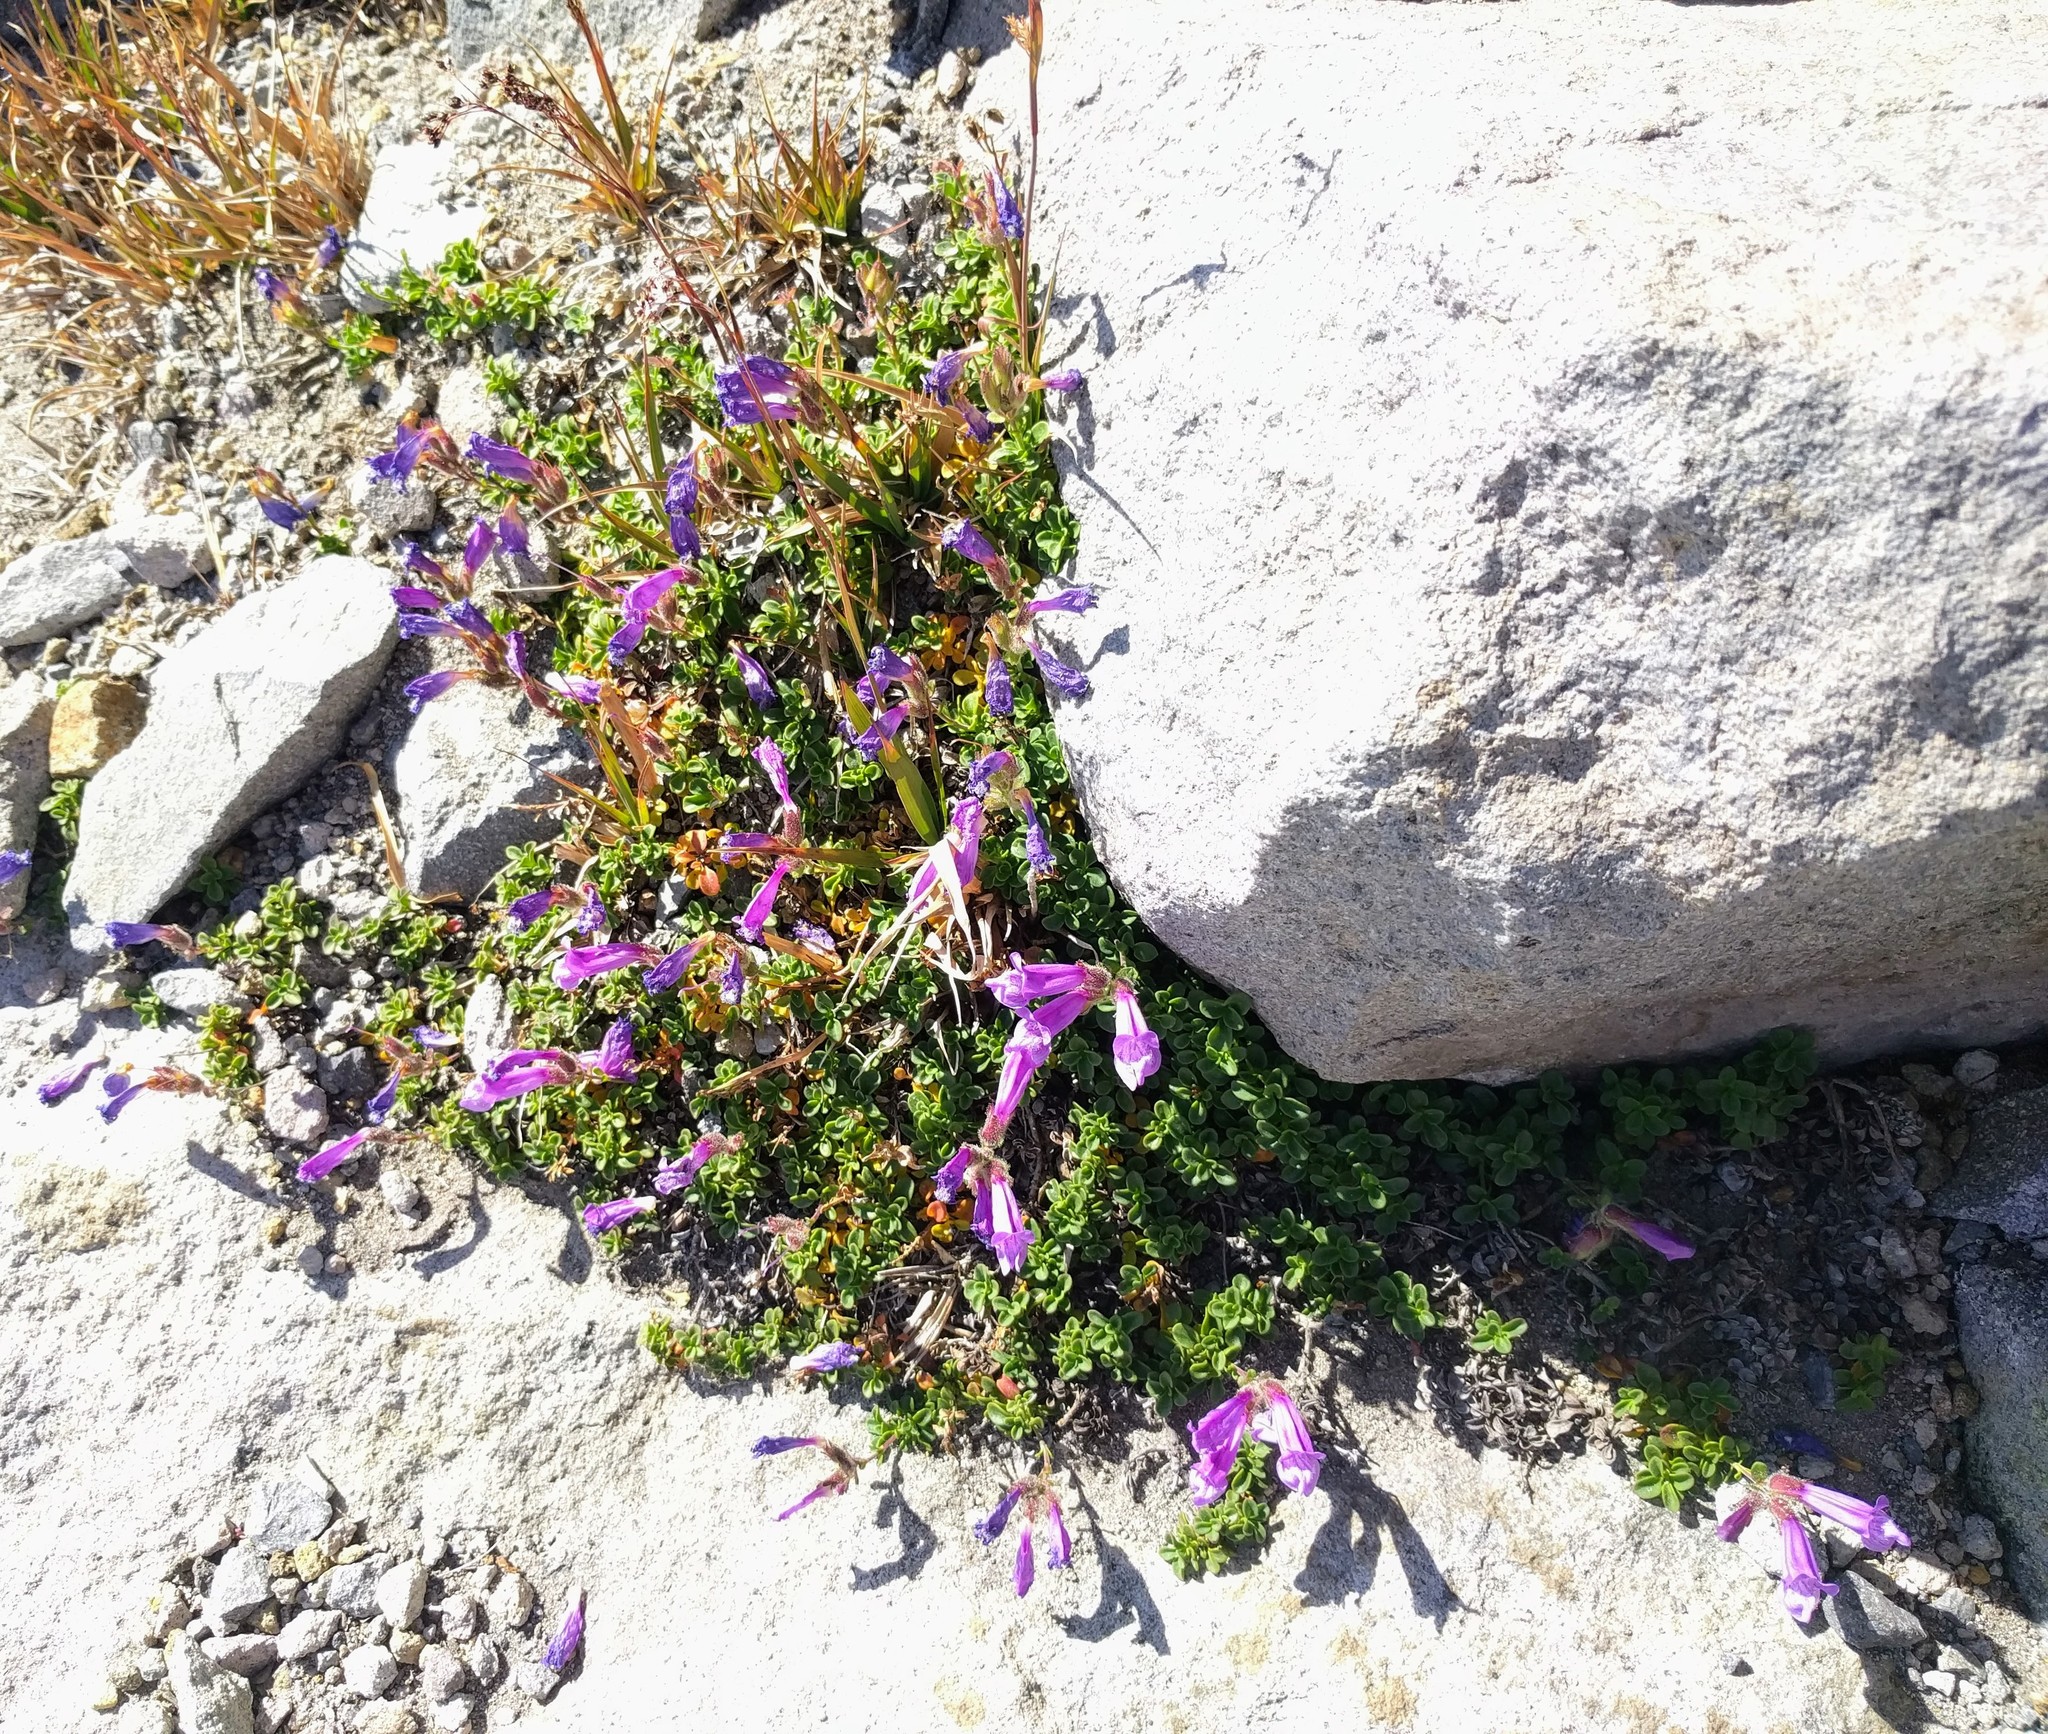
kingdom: Plantae
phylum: Tracheophyta
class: Magnoliopsida
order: Lamiales
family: Plantaginaceae
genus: Penstemon
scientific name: Penstemon davidsonii
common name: Davidson's penstemon
